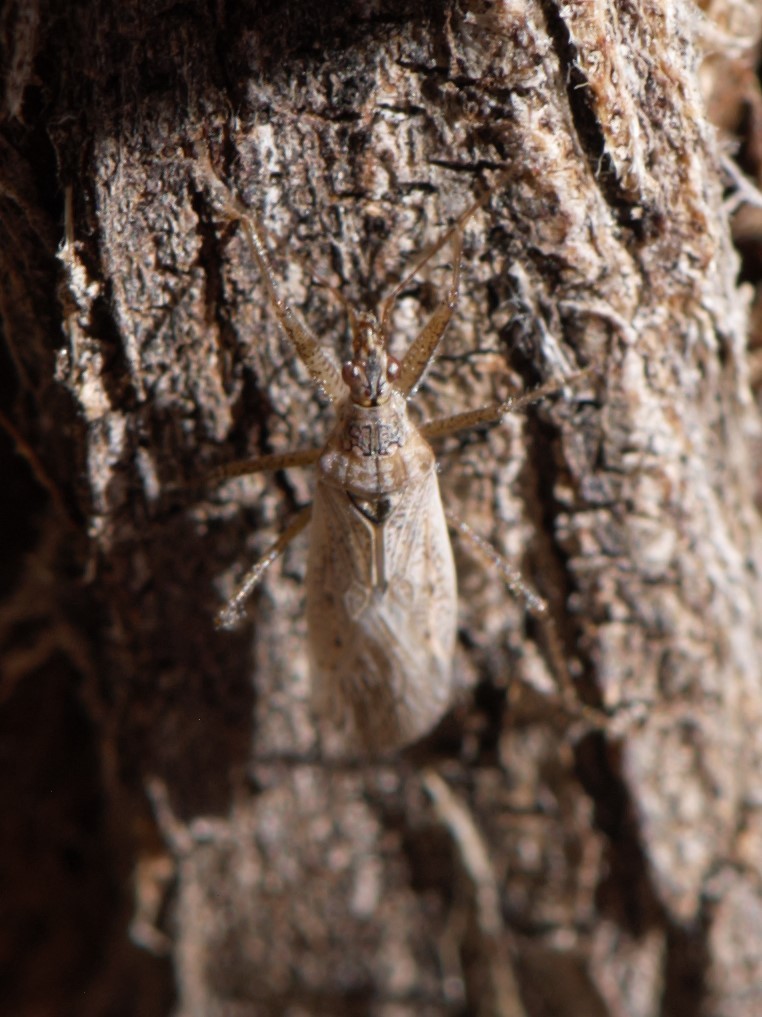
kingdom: Animalia
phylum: Arthropoda
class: Insecta
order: Hemiptera
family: Nabidae
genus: Nabis
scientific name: Nabis
